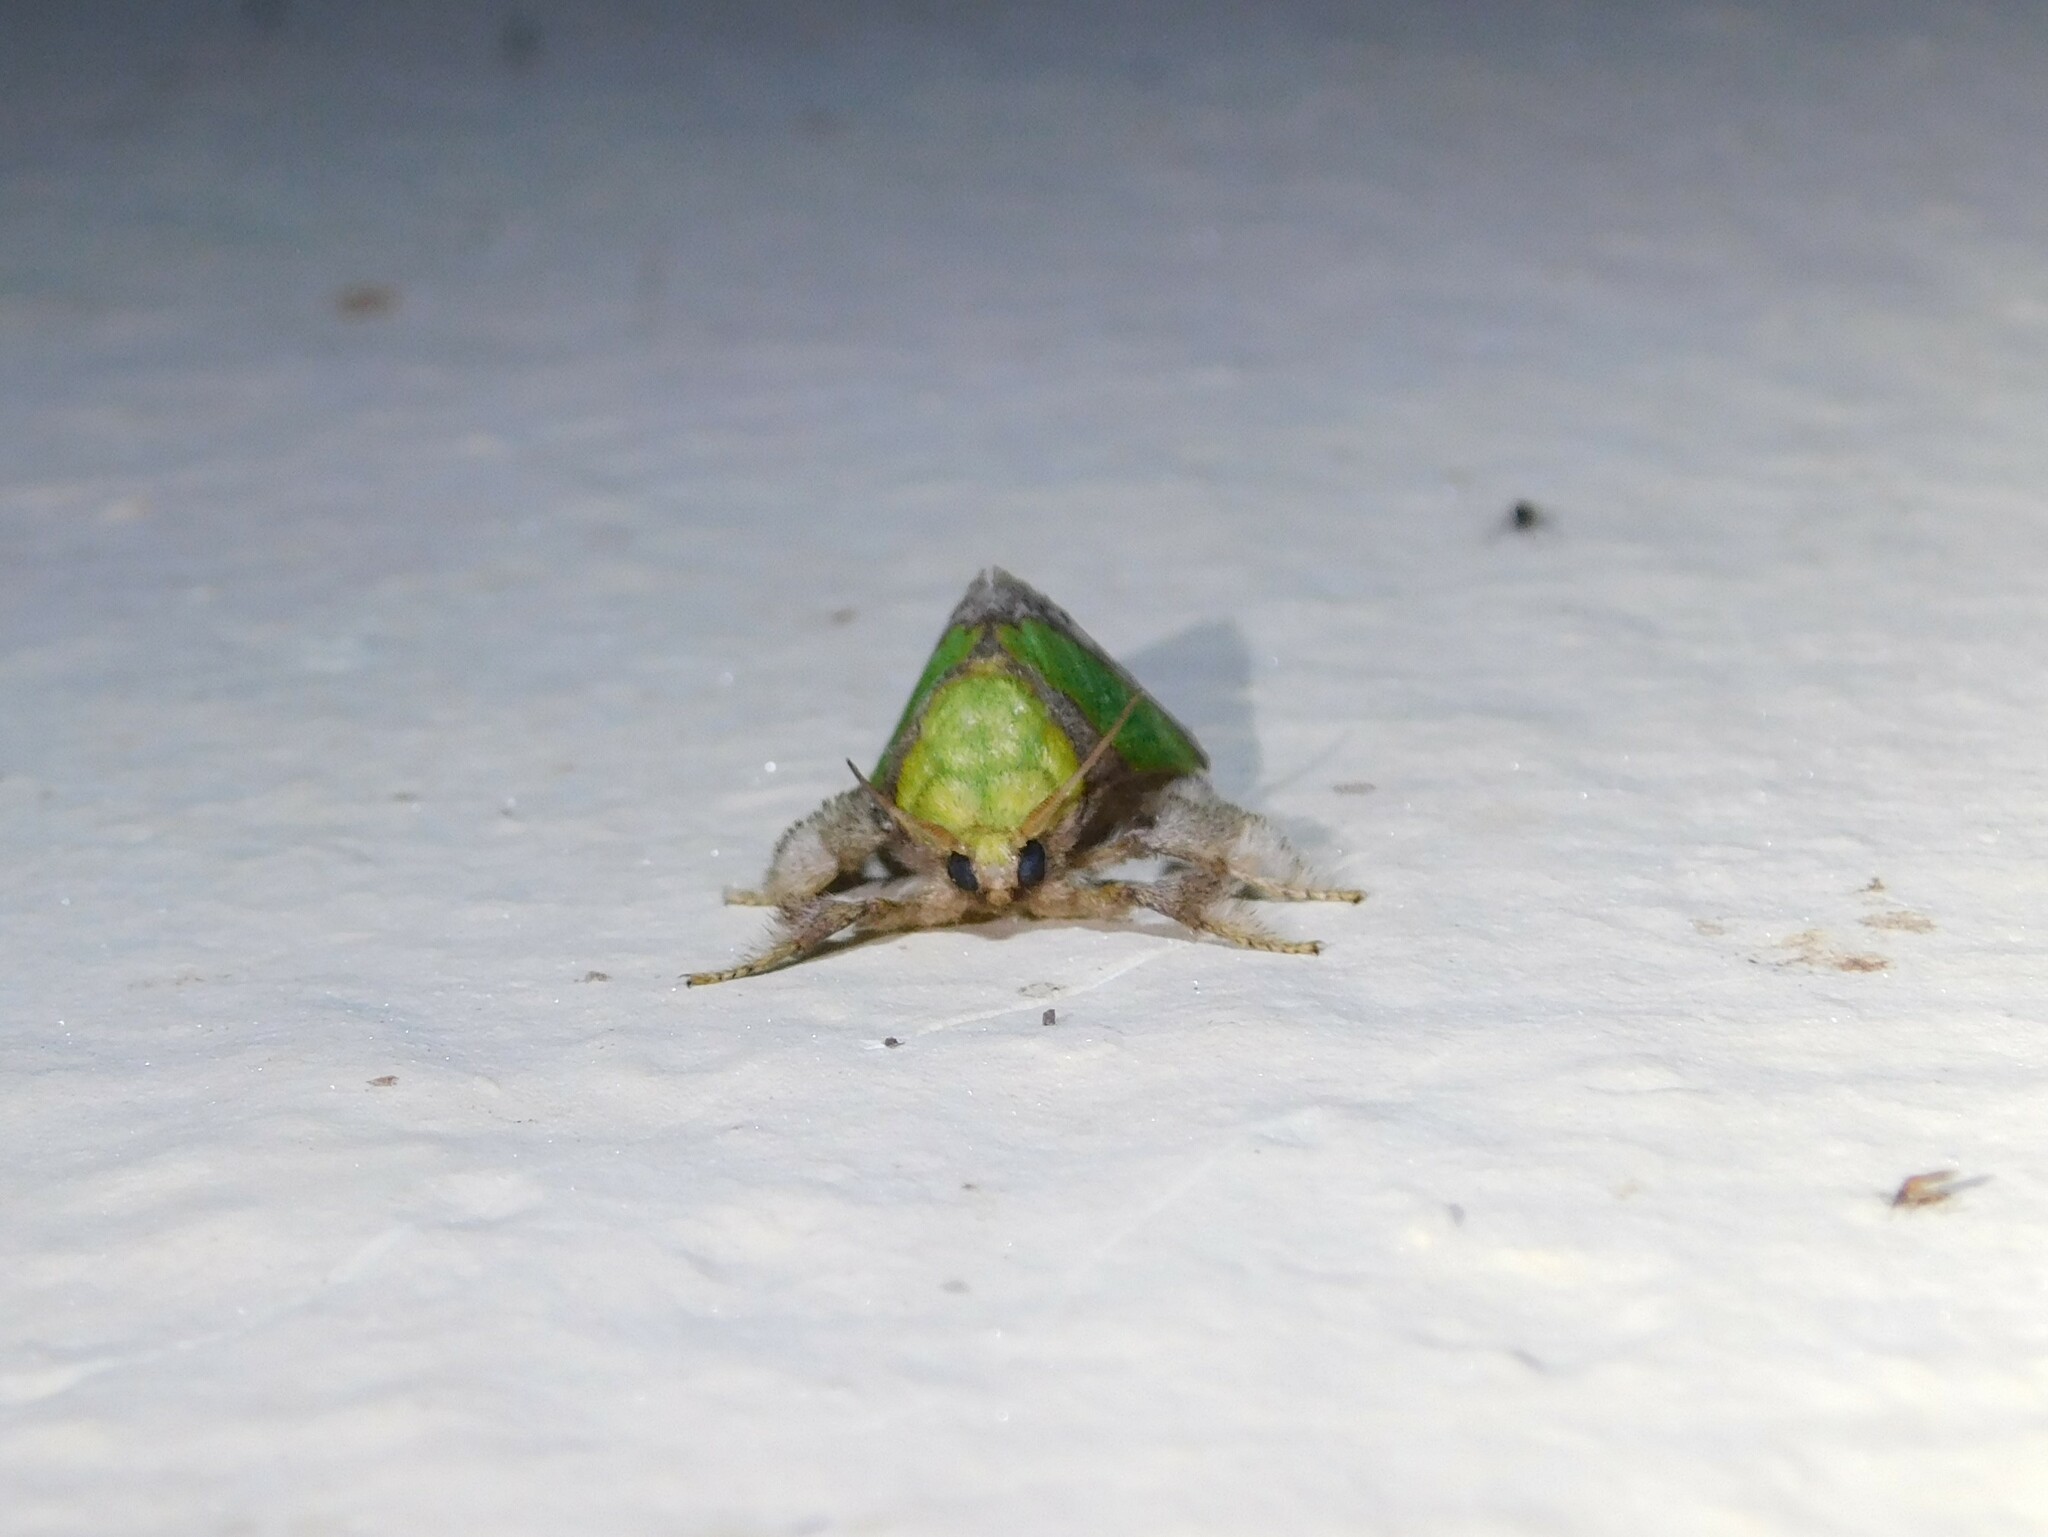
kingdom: Animalia
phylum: Arthropoda
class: Insecta
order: Lepidoptera
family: Limacodidae
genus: Parasa
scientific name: Parasa viridissima
